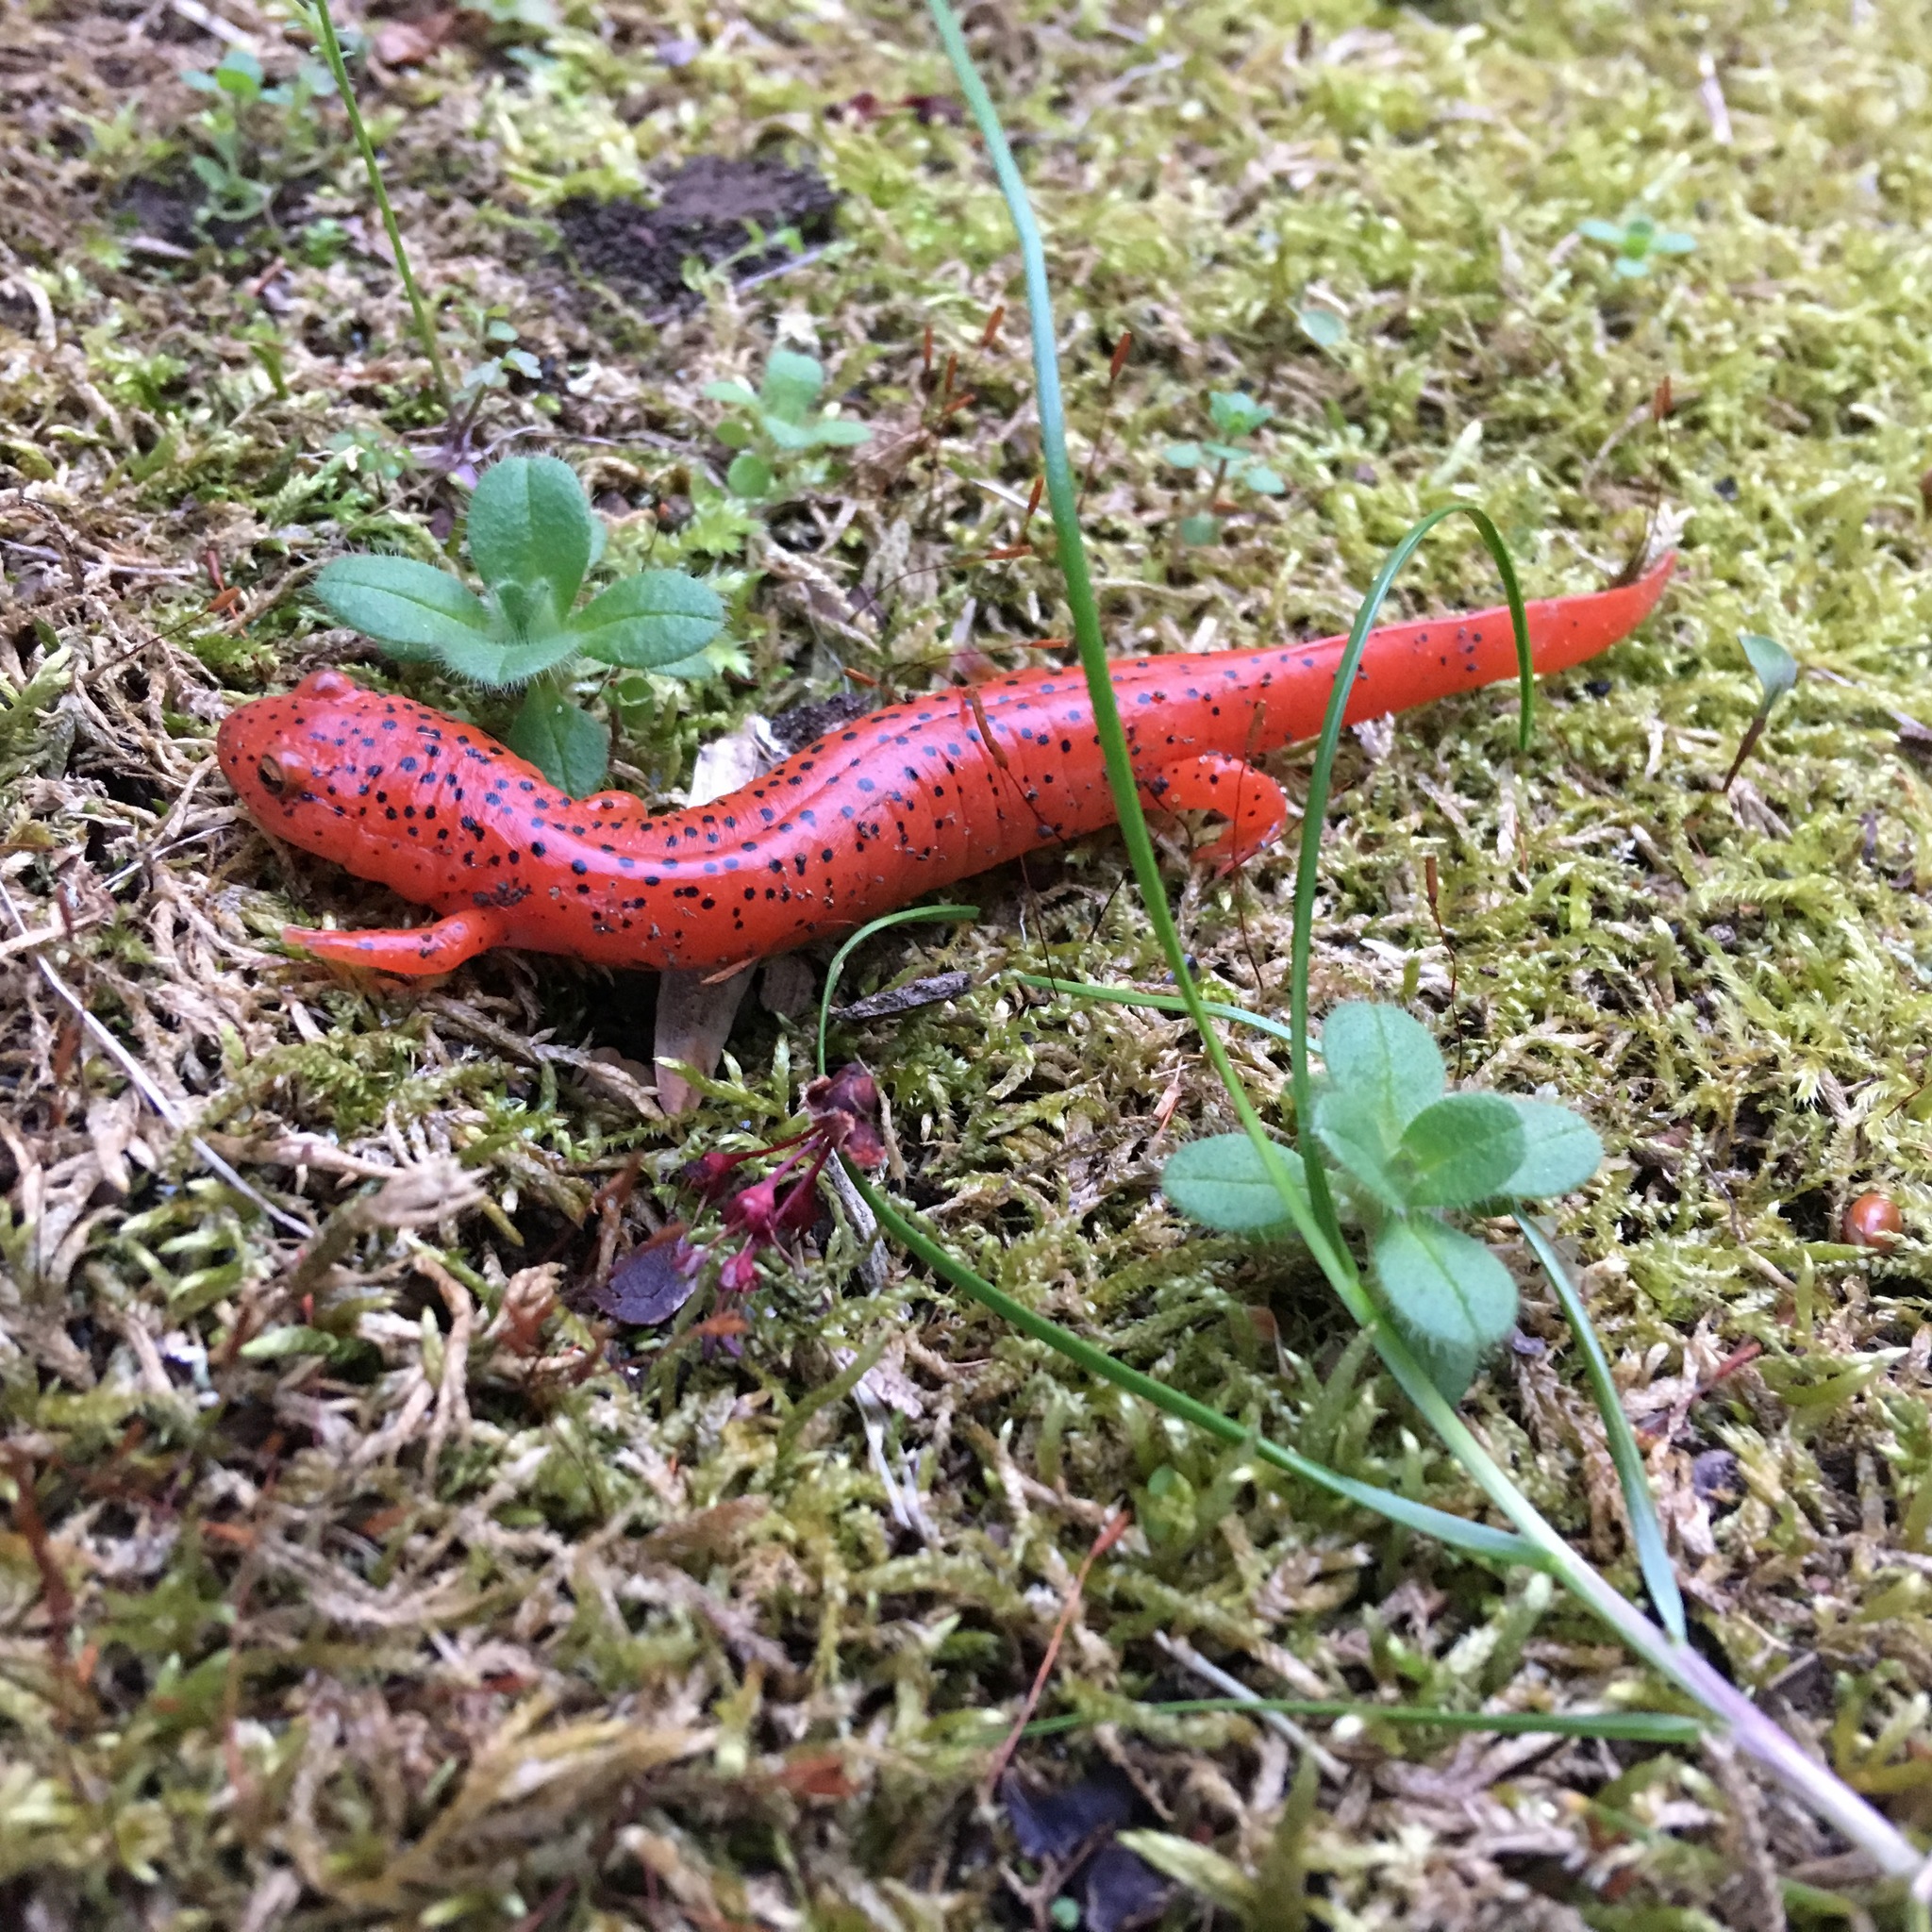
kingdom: Animalia
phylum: Chordata
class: Amphibia
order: Caudata
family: Plethodontidae
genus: Pseudotriton
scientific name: Pseudotriton ruber
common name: Red salamander
